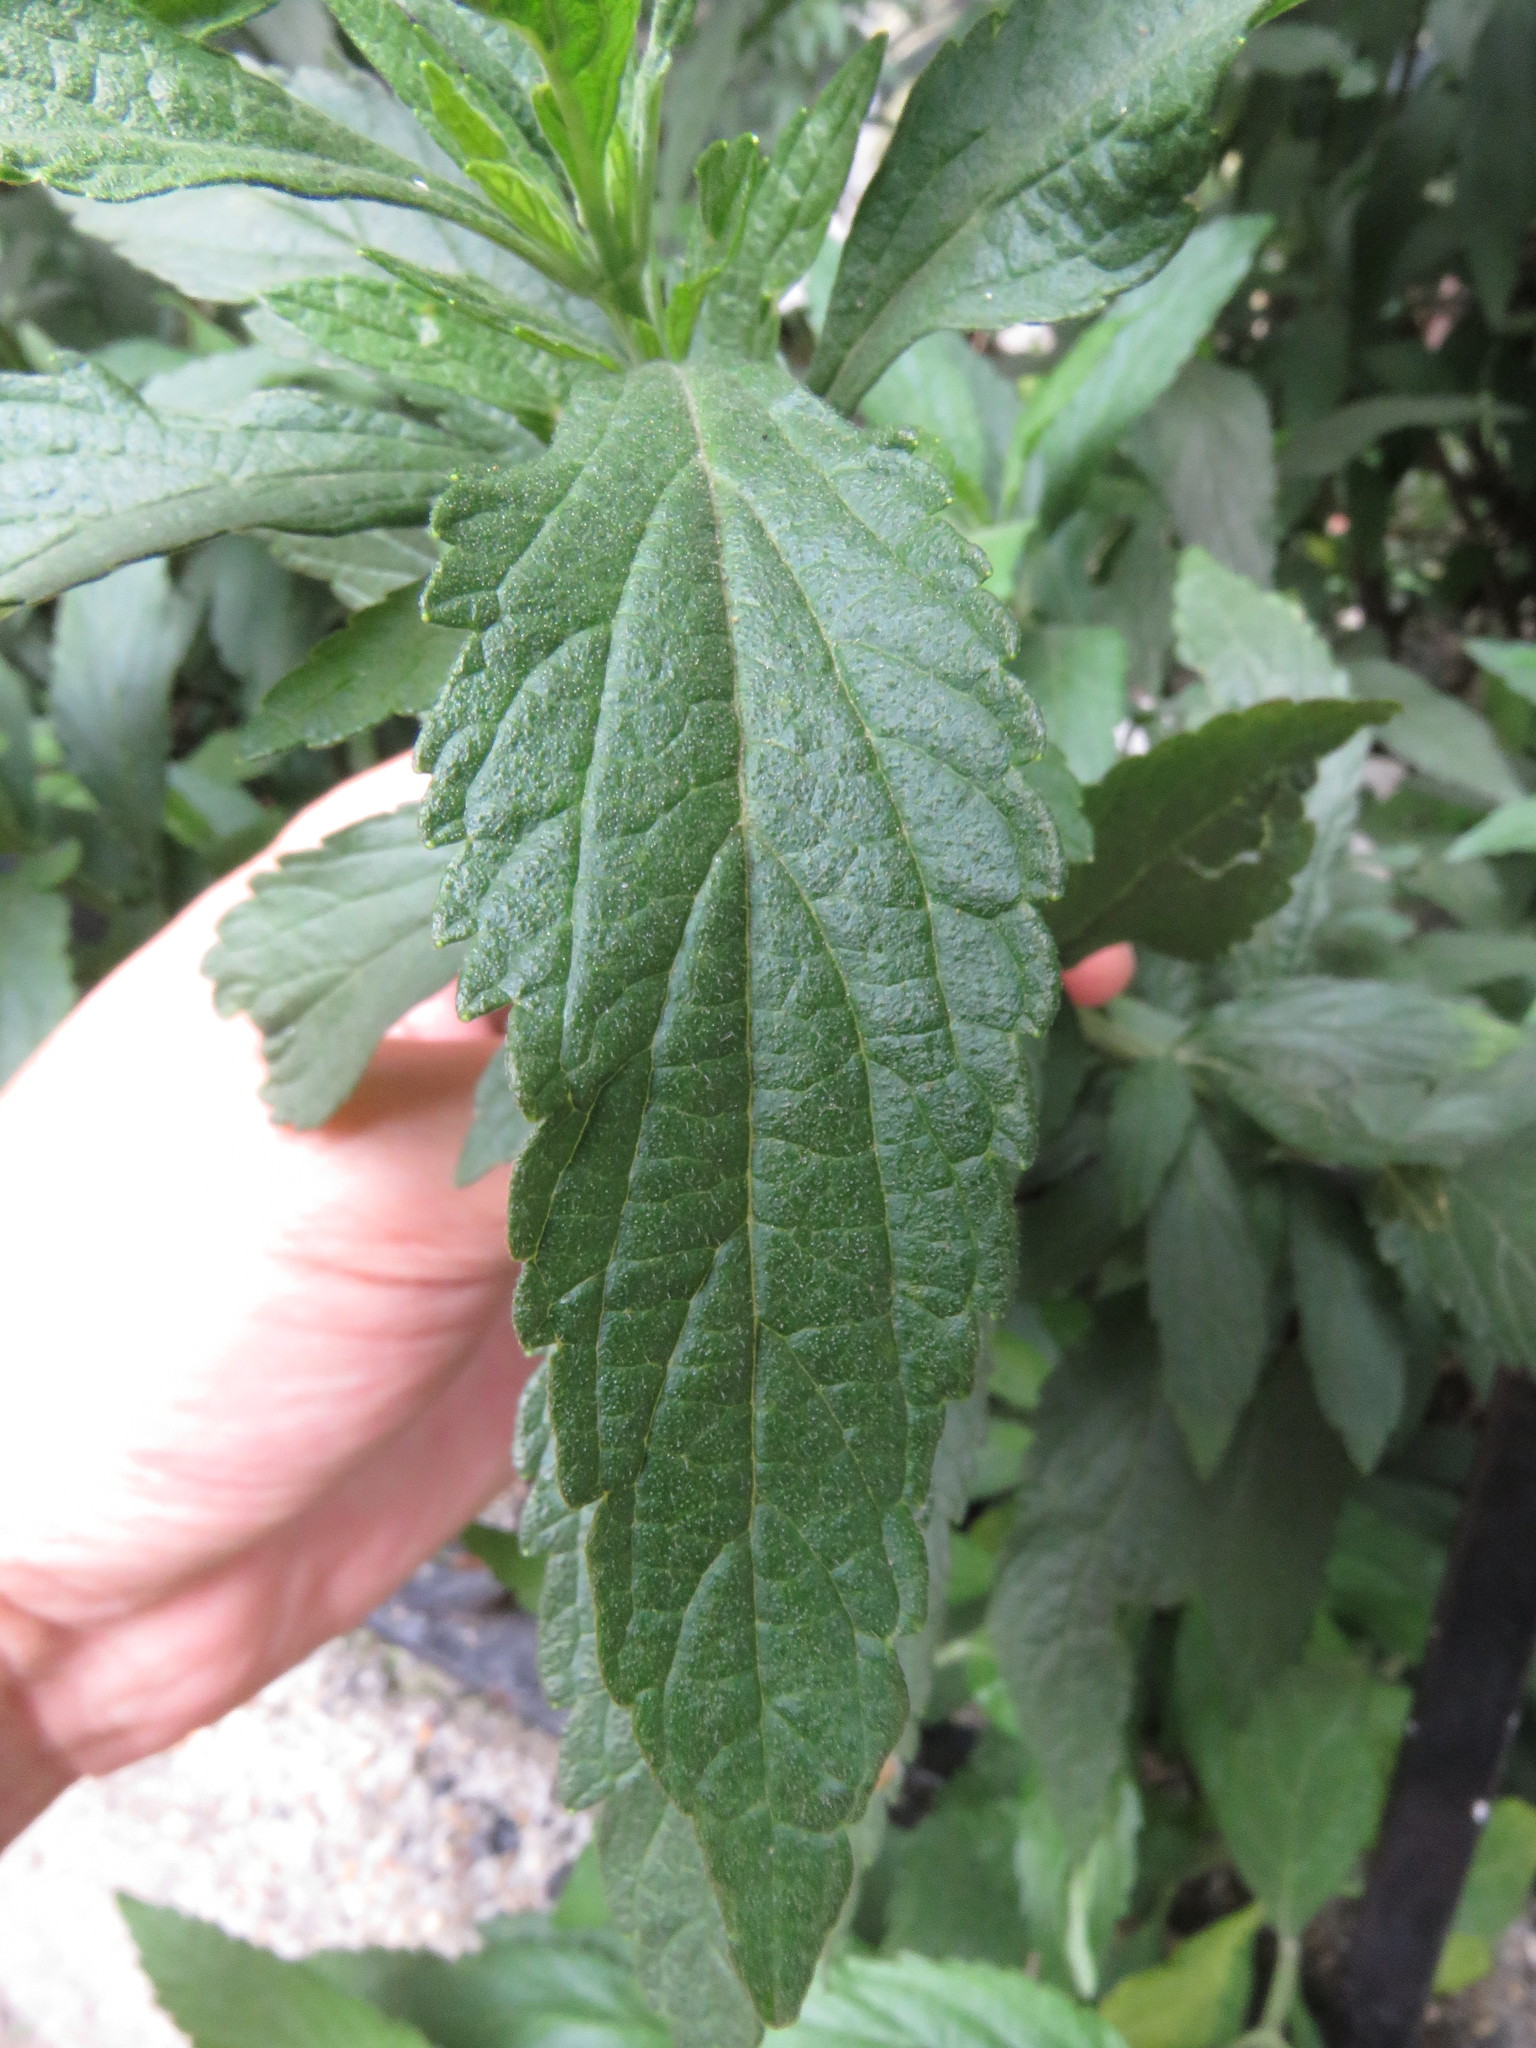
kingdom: Plantae
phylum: Tracheophyta
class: Magnoliopsida
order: Lamiales
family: Lamiaceae
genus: Leonotis
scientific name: Leonotis leonurus
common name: Lion's ear
